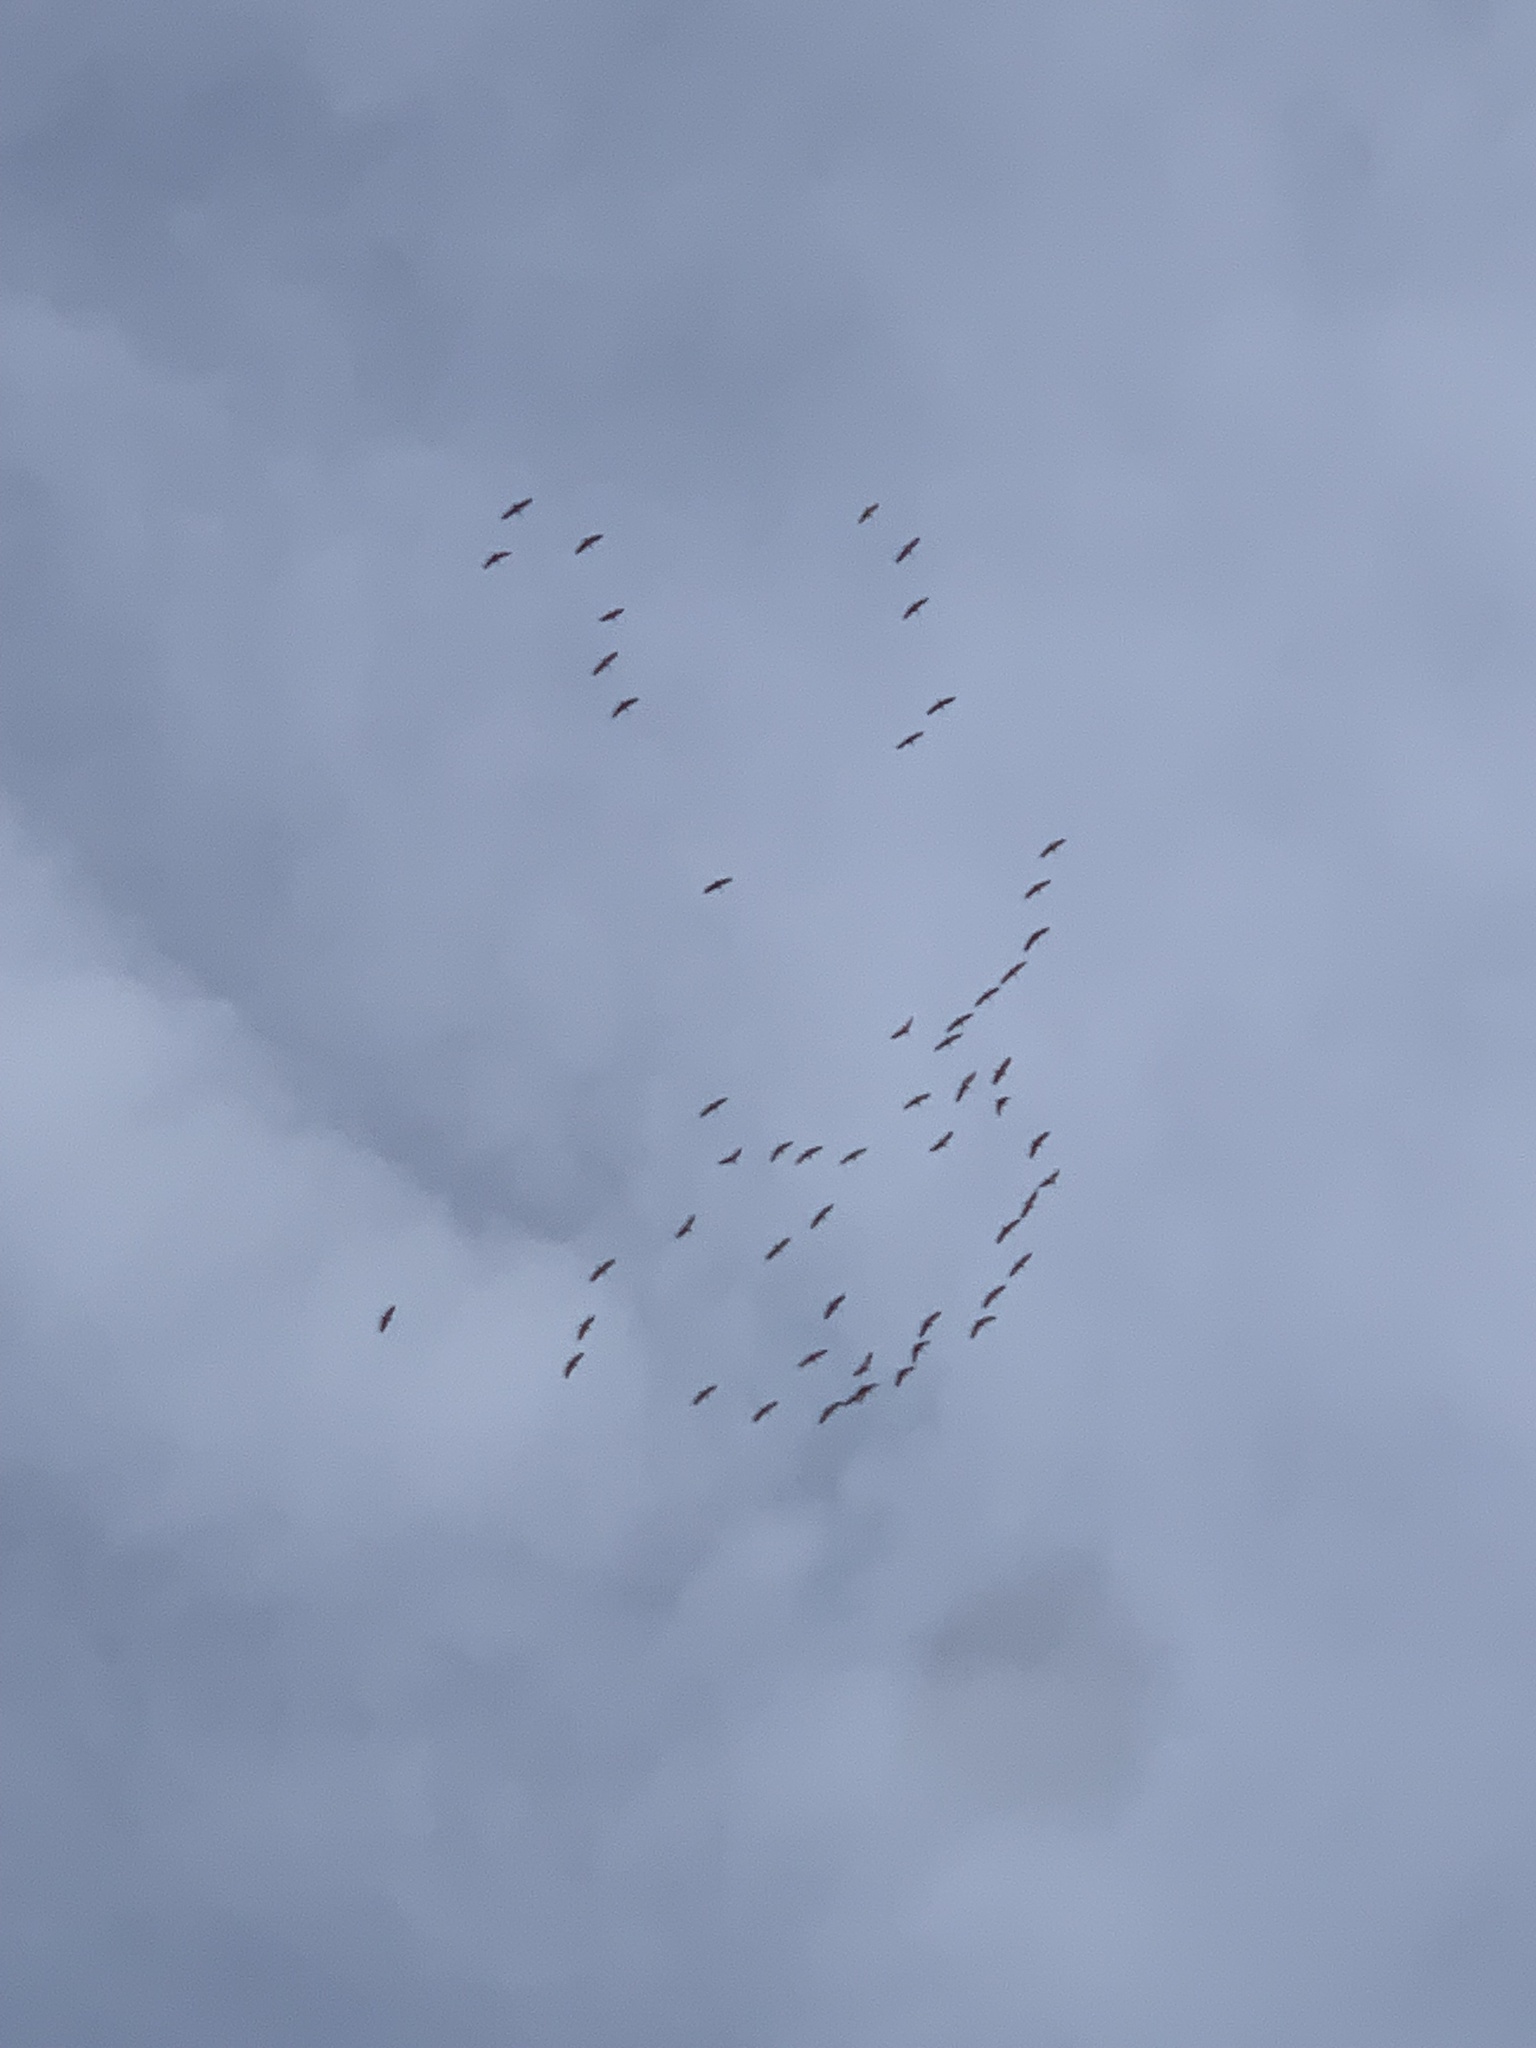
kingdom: Animalia
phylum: Chordata
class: Aves
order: Gruiformes
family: Gruidae
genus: Grus
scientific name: Grus canadensis
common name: Sandhill crane
